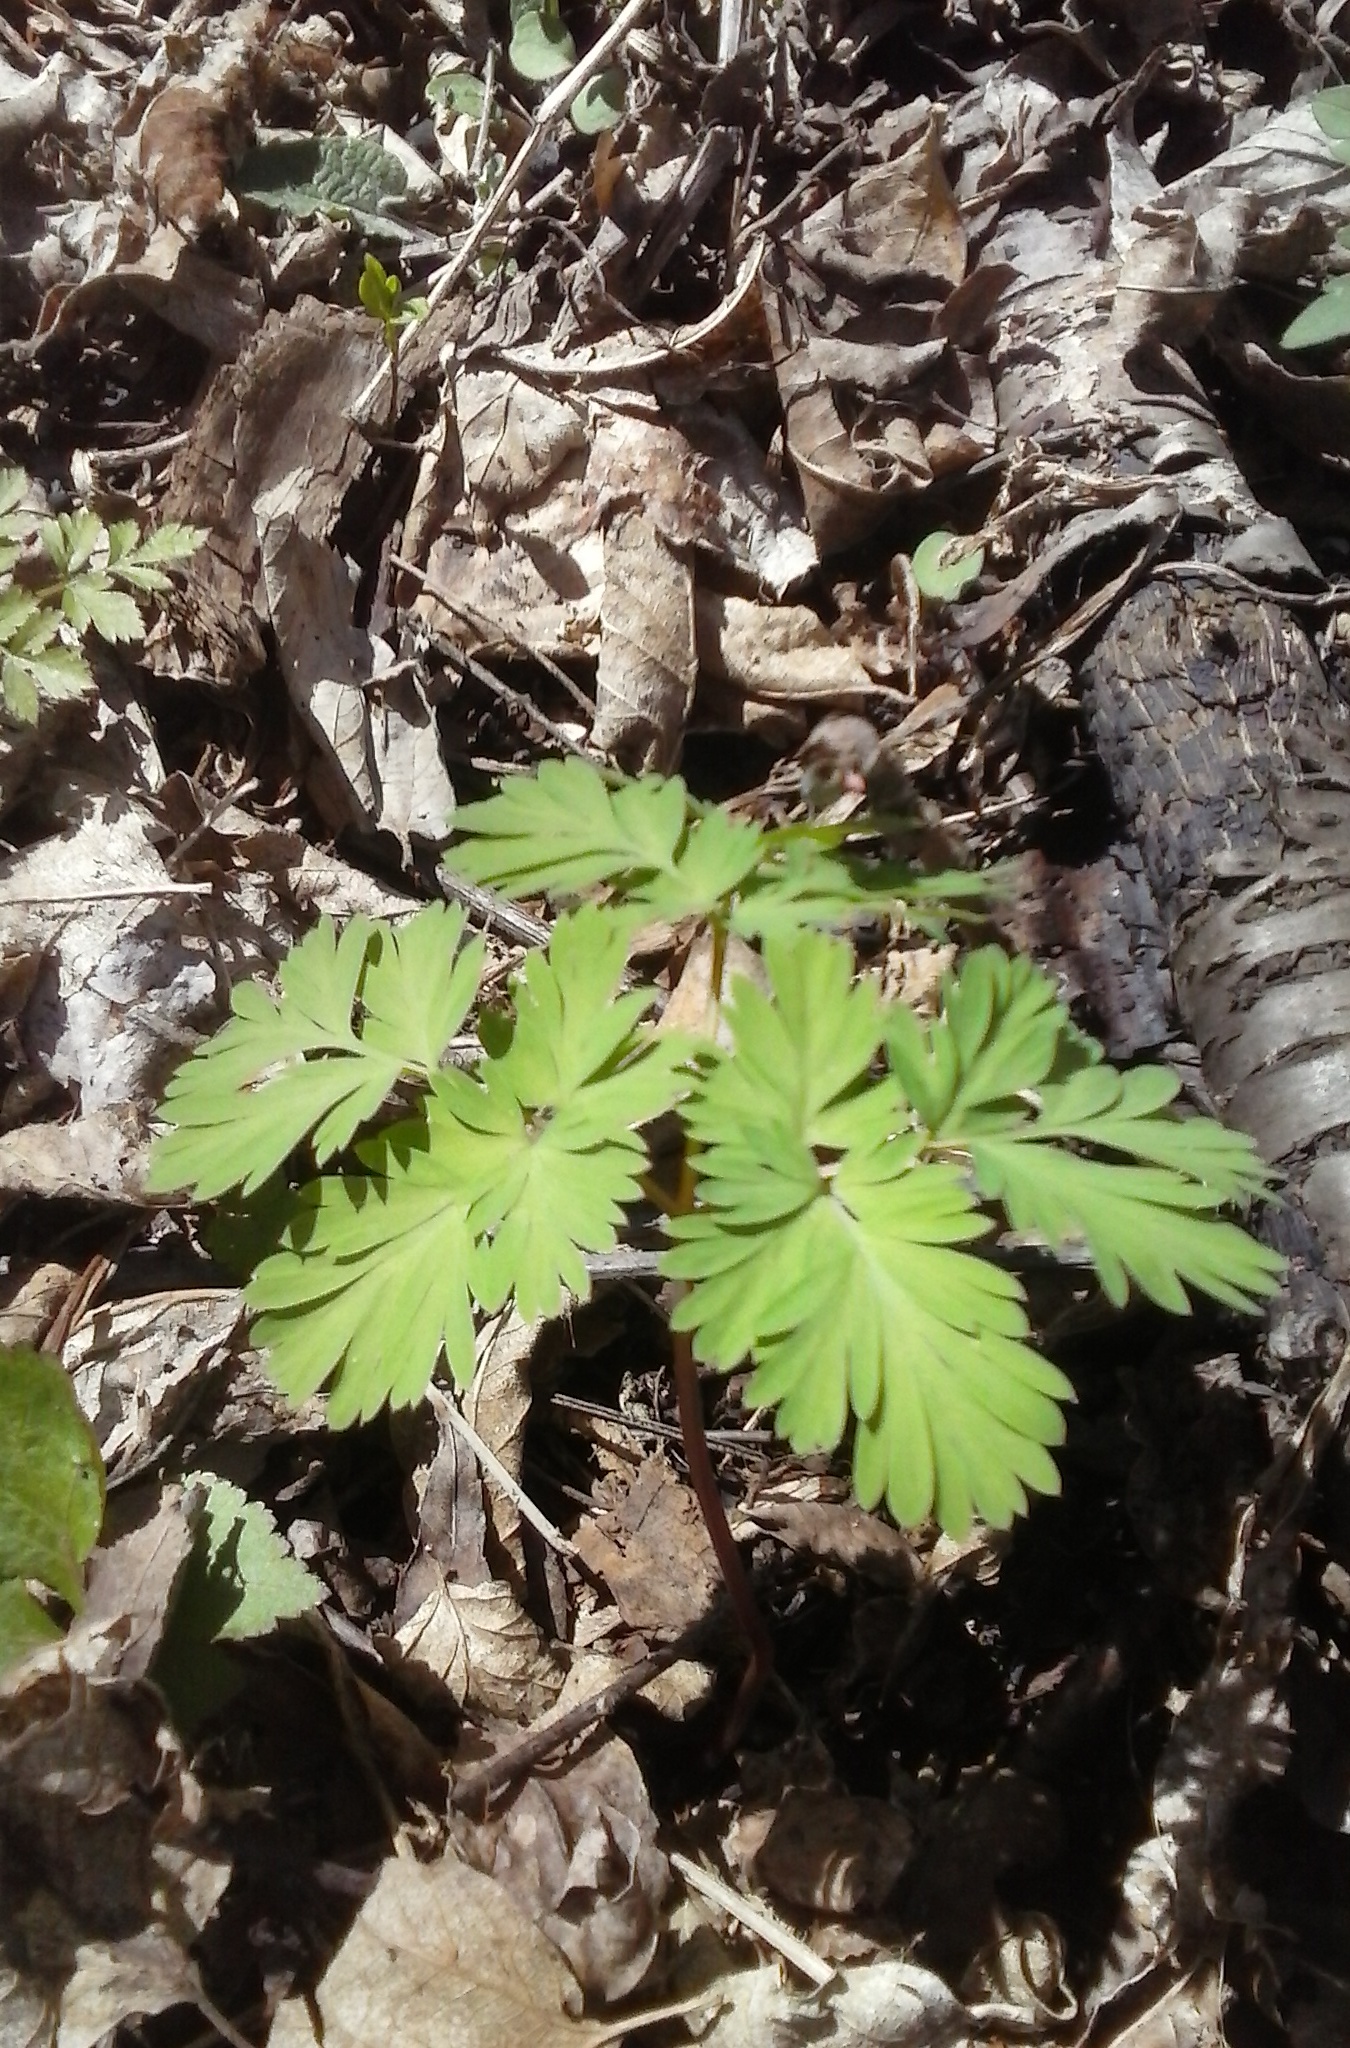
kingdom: Plantae
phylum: Tracheophyta
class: Magnoliopsida
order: Ranunculales
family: Papaveraceae
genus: Dicentra
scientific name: Dicentra cucullaria
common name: Dutchman's breeches
